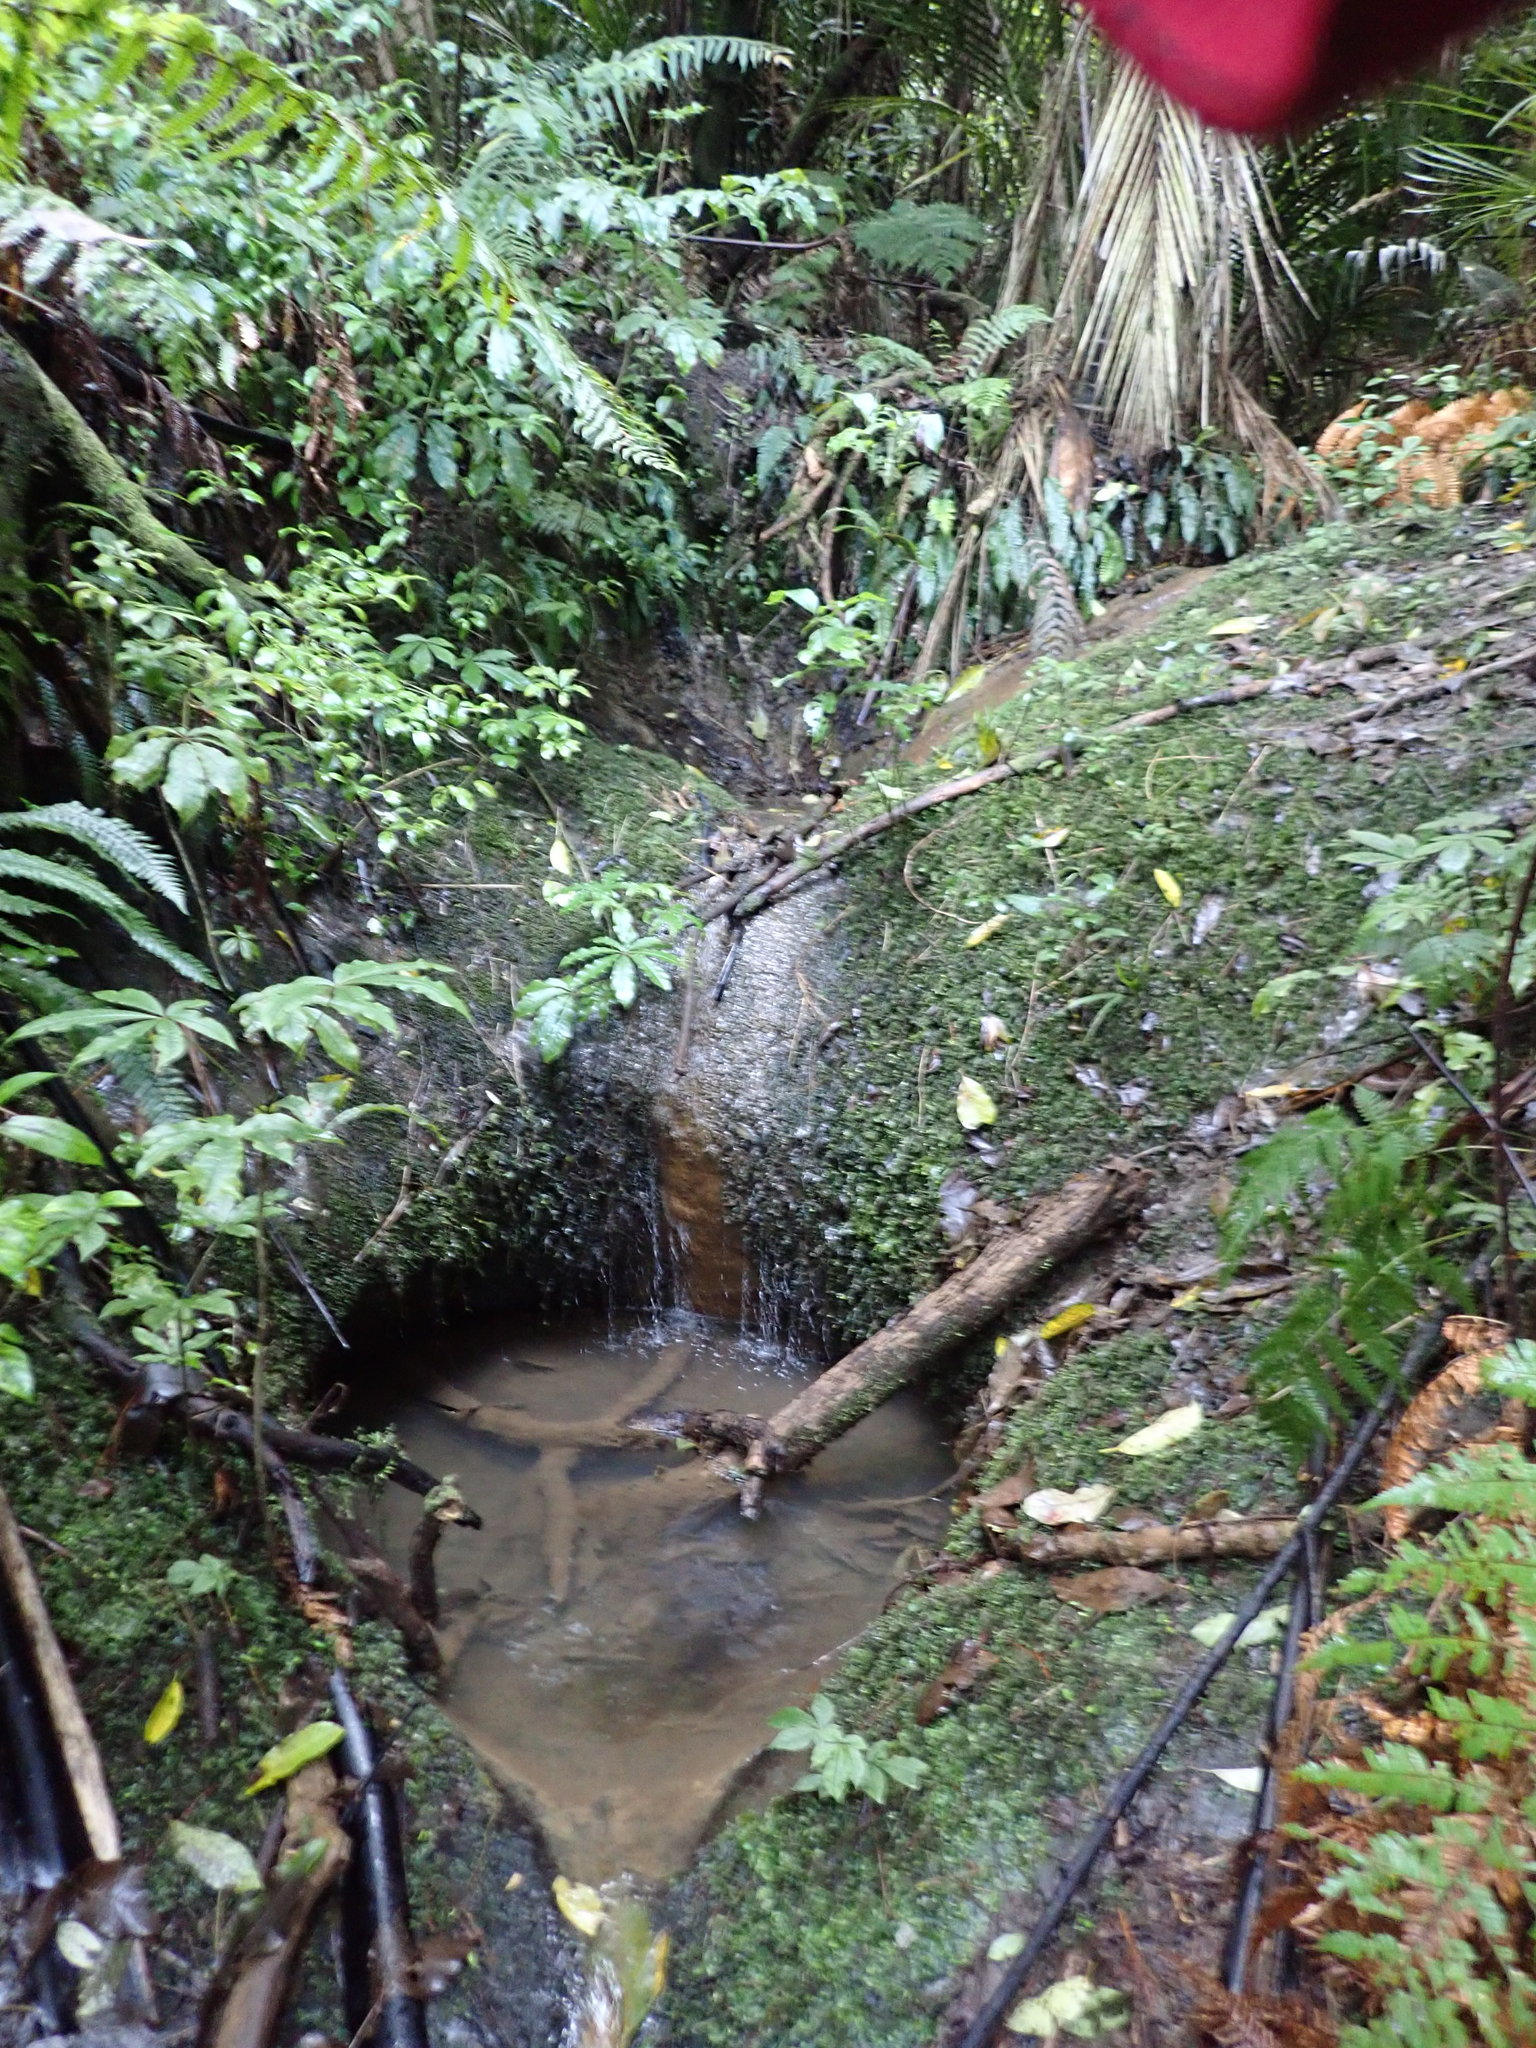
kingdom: Plantae
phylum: Tracheophyta
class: Magnoliopsida
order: Apiales
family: Araliaceae
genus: Schefflera
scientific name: Schefflera digitata
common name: Pate
